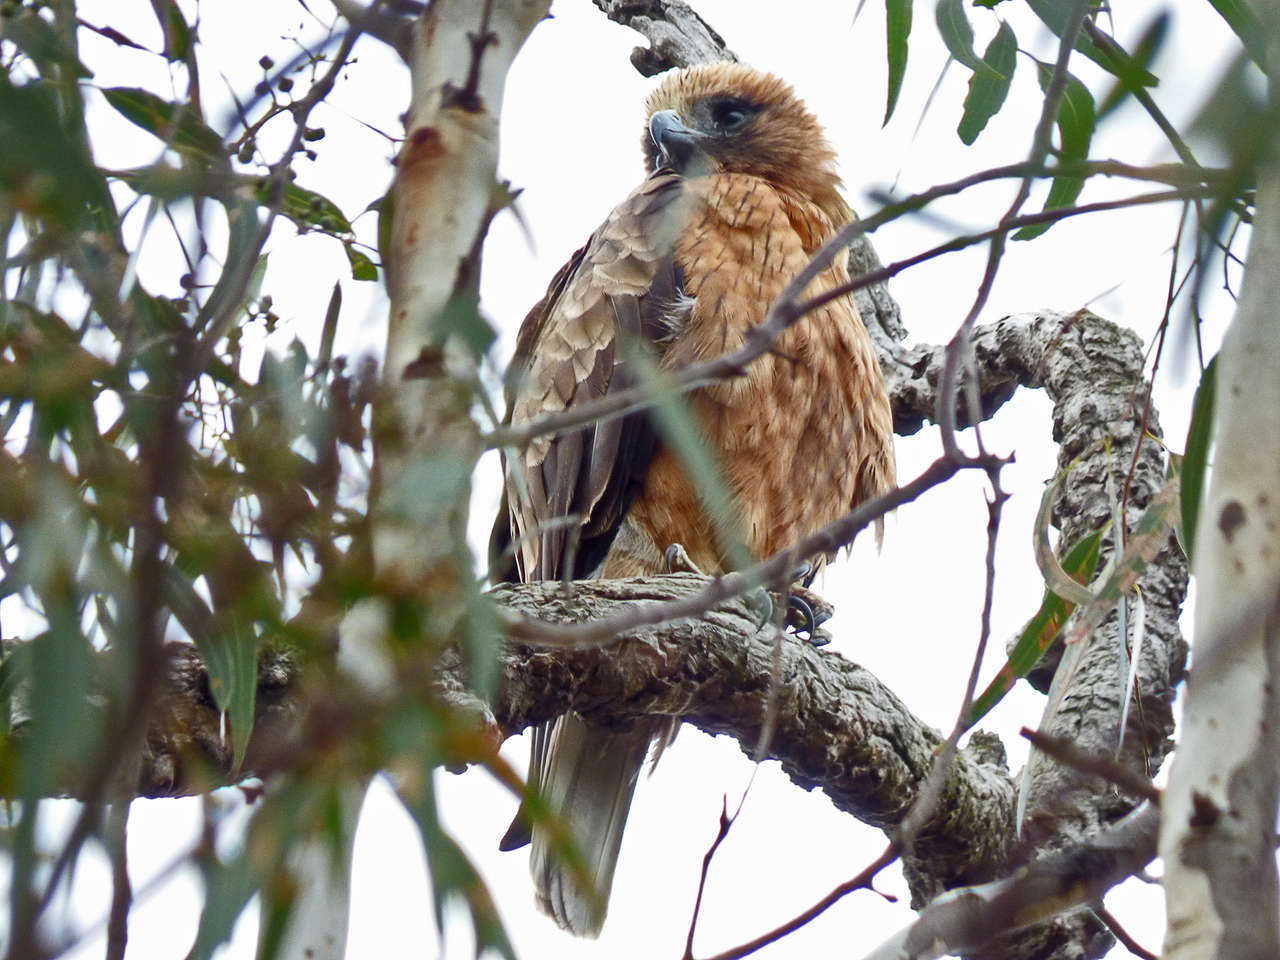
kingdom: Animalia
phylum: Chordata
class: Aves
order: Accipitriformes
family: Accipitridae
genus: Hieraaetus
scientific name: Hieraaetus morphnoides
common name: Little eagle
